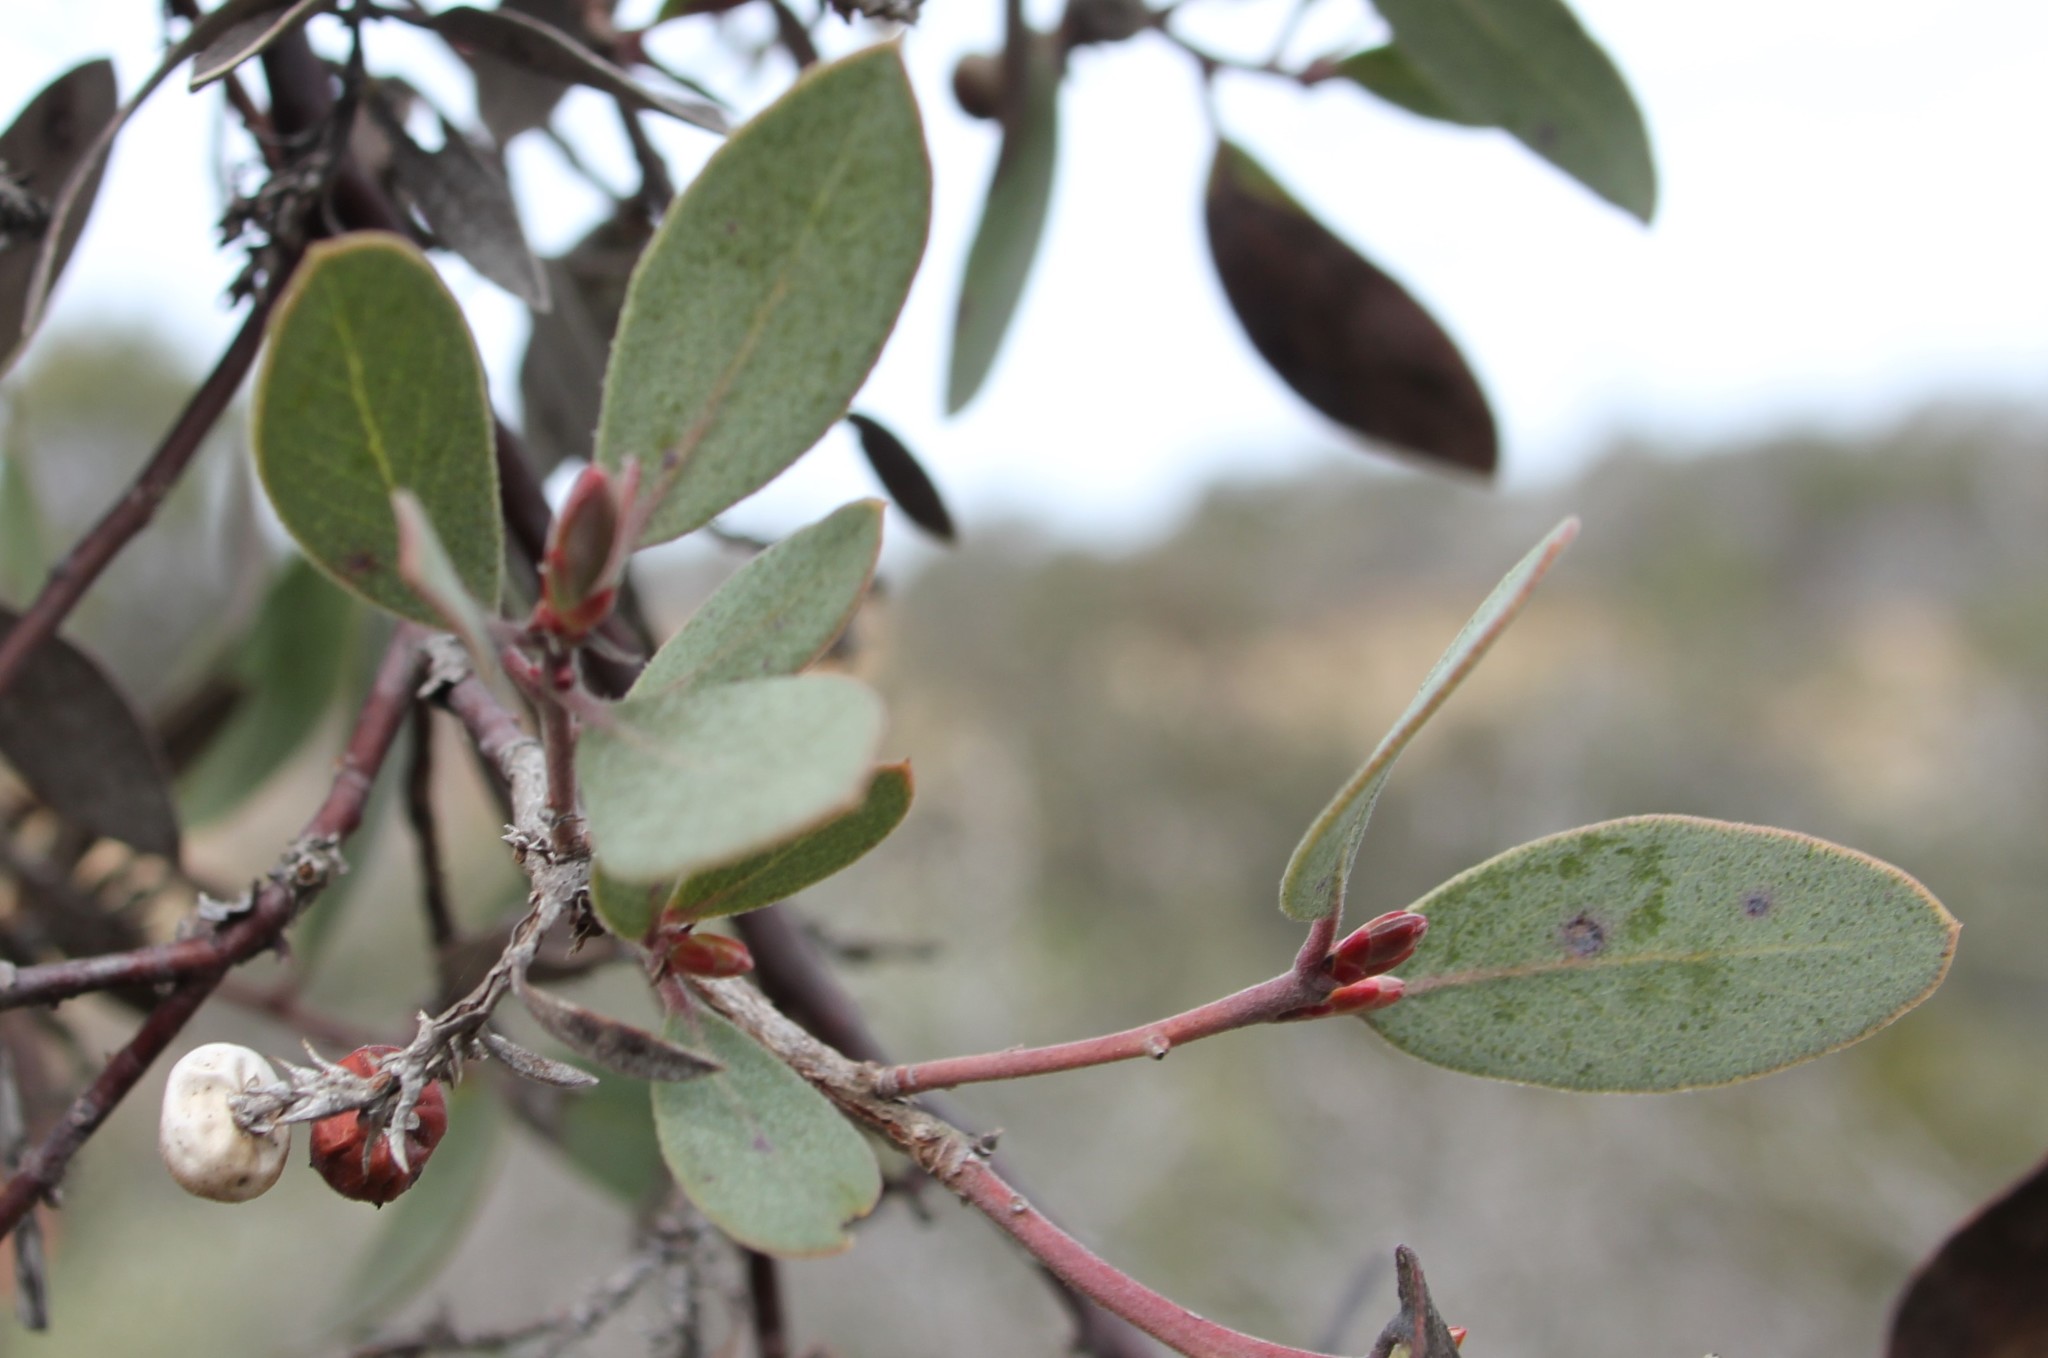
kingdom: Plantae
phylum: Tracheophyta
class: Magnoliopsida
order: Ericales
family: Ericaceae
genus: Arctostaphylos
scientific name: Arctostaphylos glandulosa
